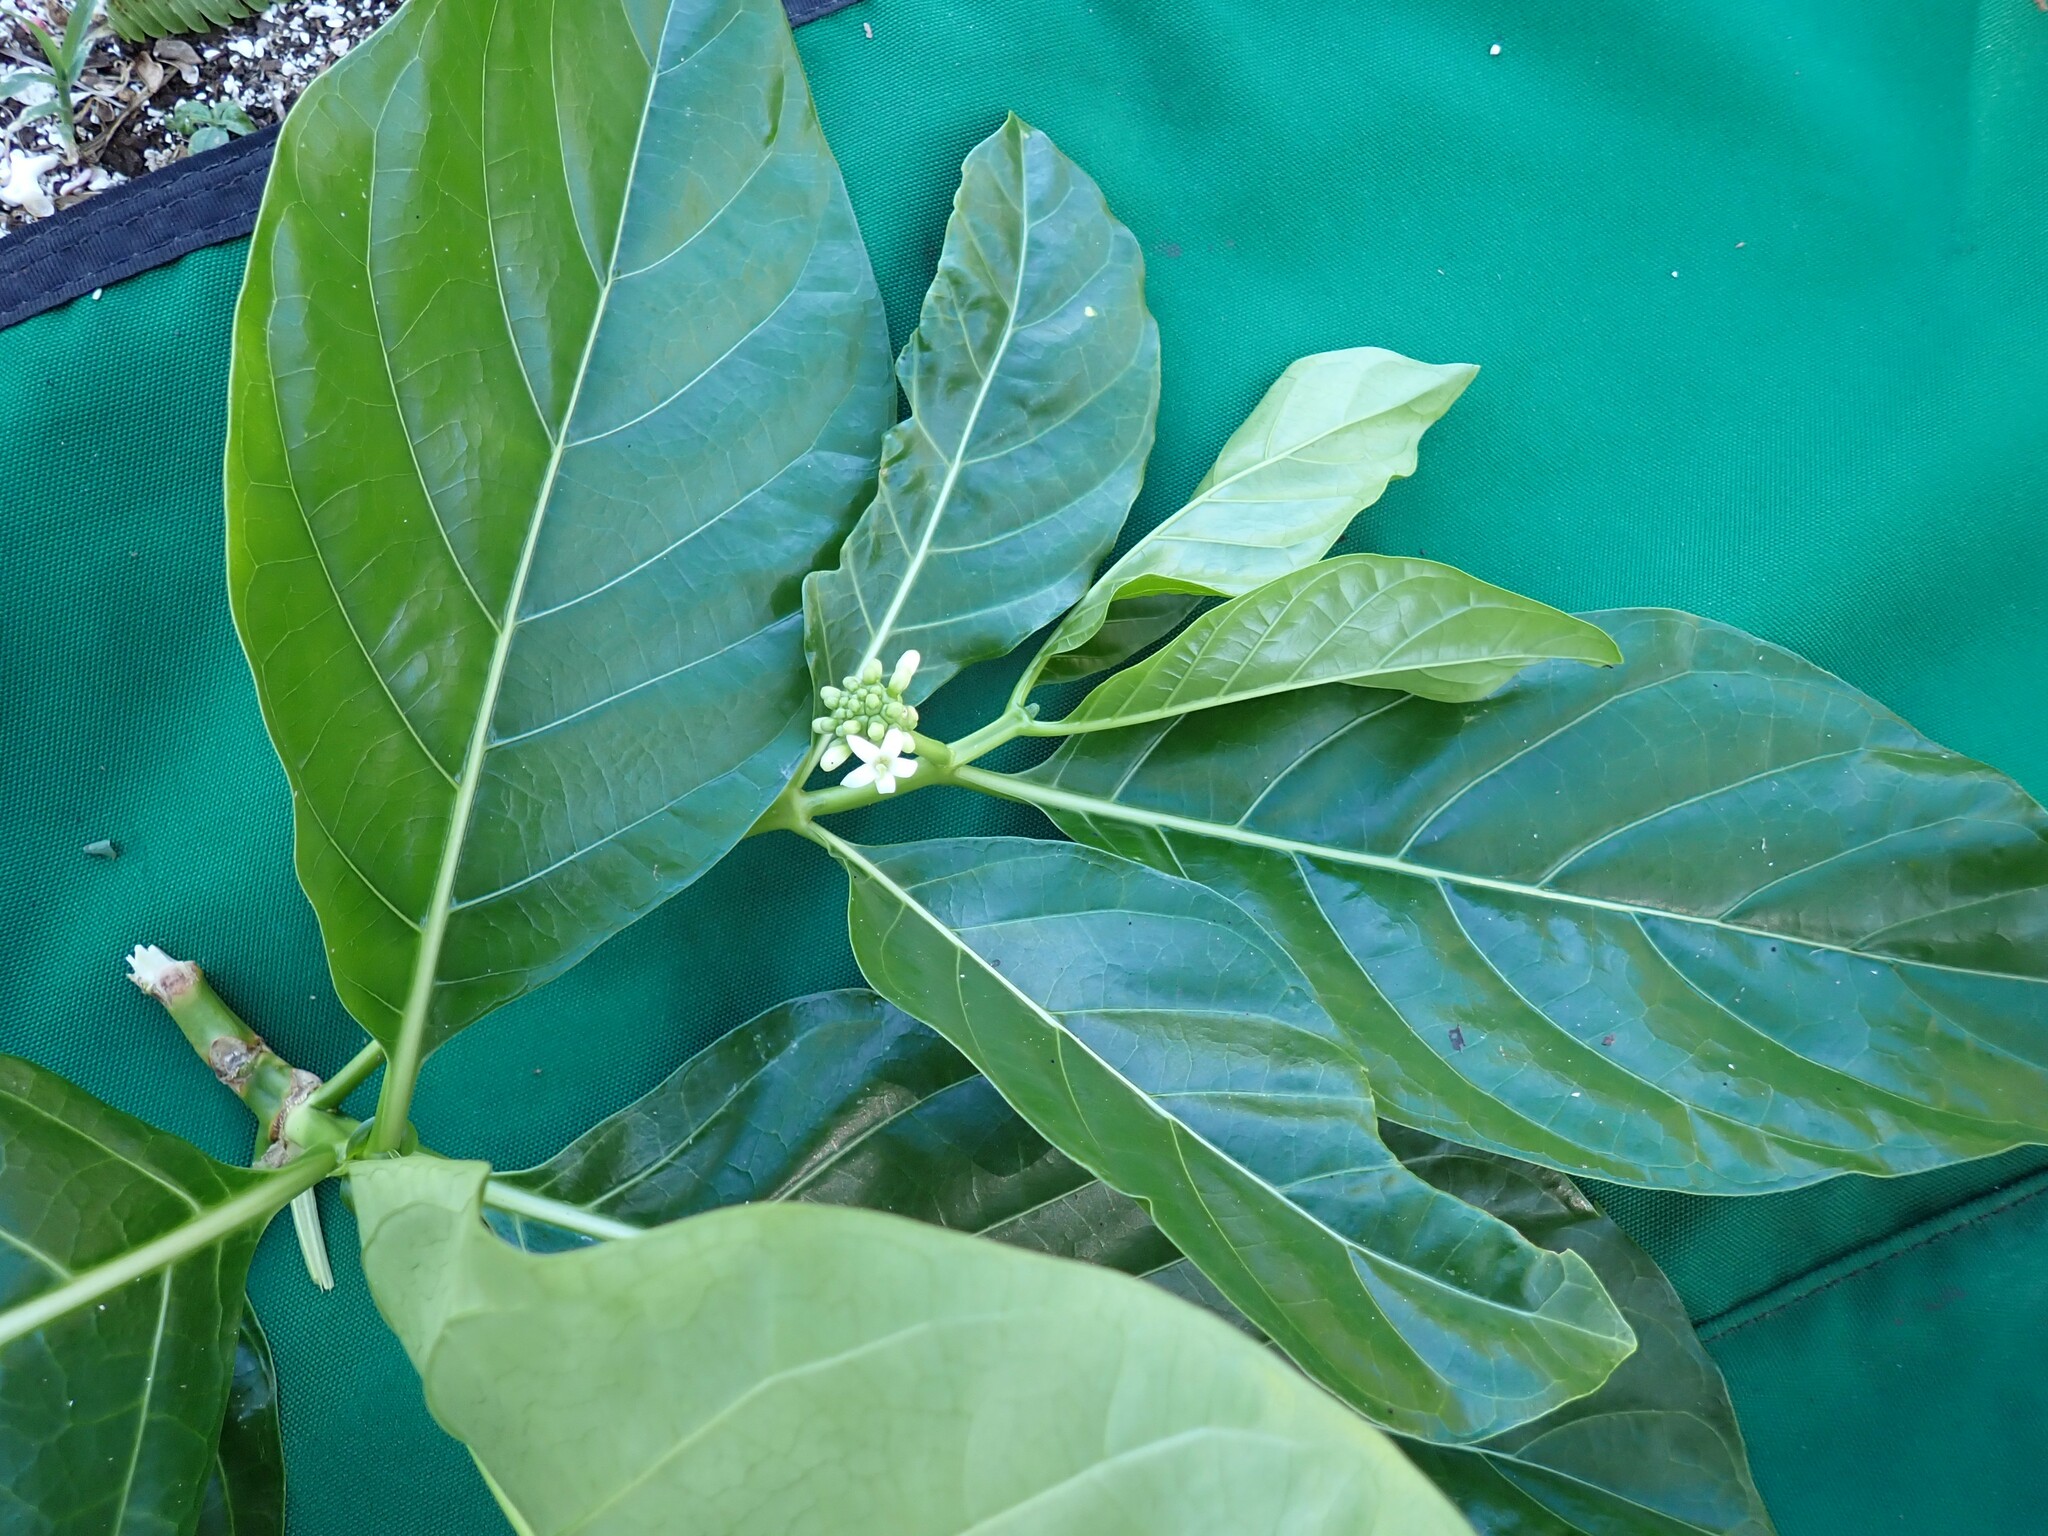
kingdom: Plantae
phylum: Tracheophyta
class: Magnoliopsida
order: Gentianales
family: Rubiaceae
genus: Morinda
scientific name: Morinda citrifolia
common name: Indian-mulberry
